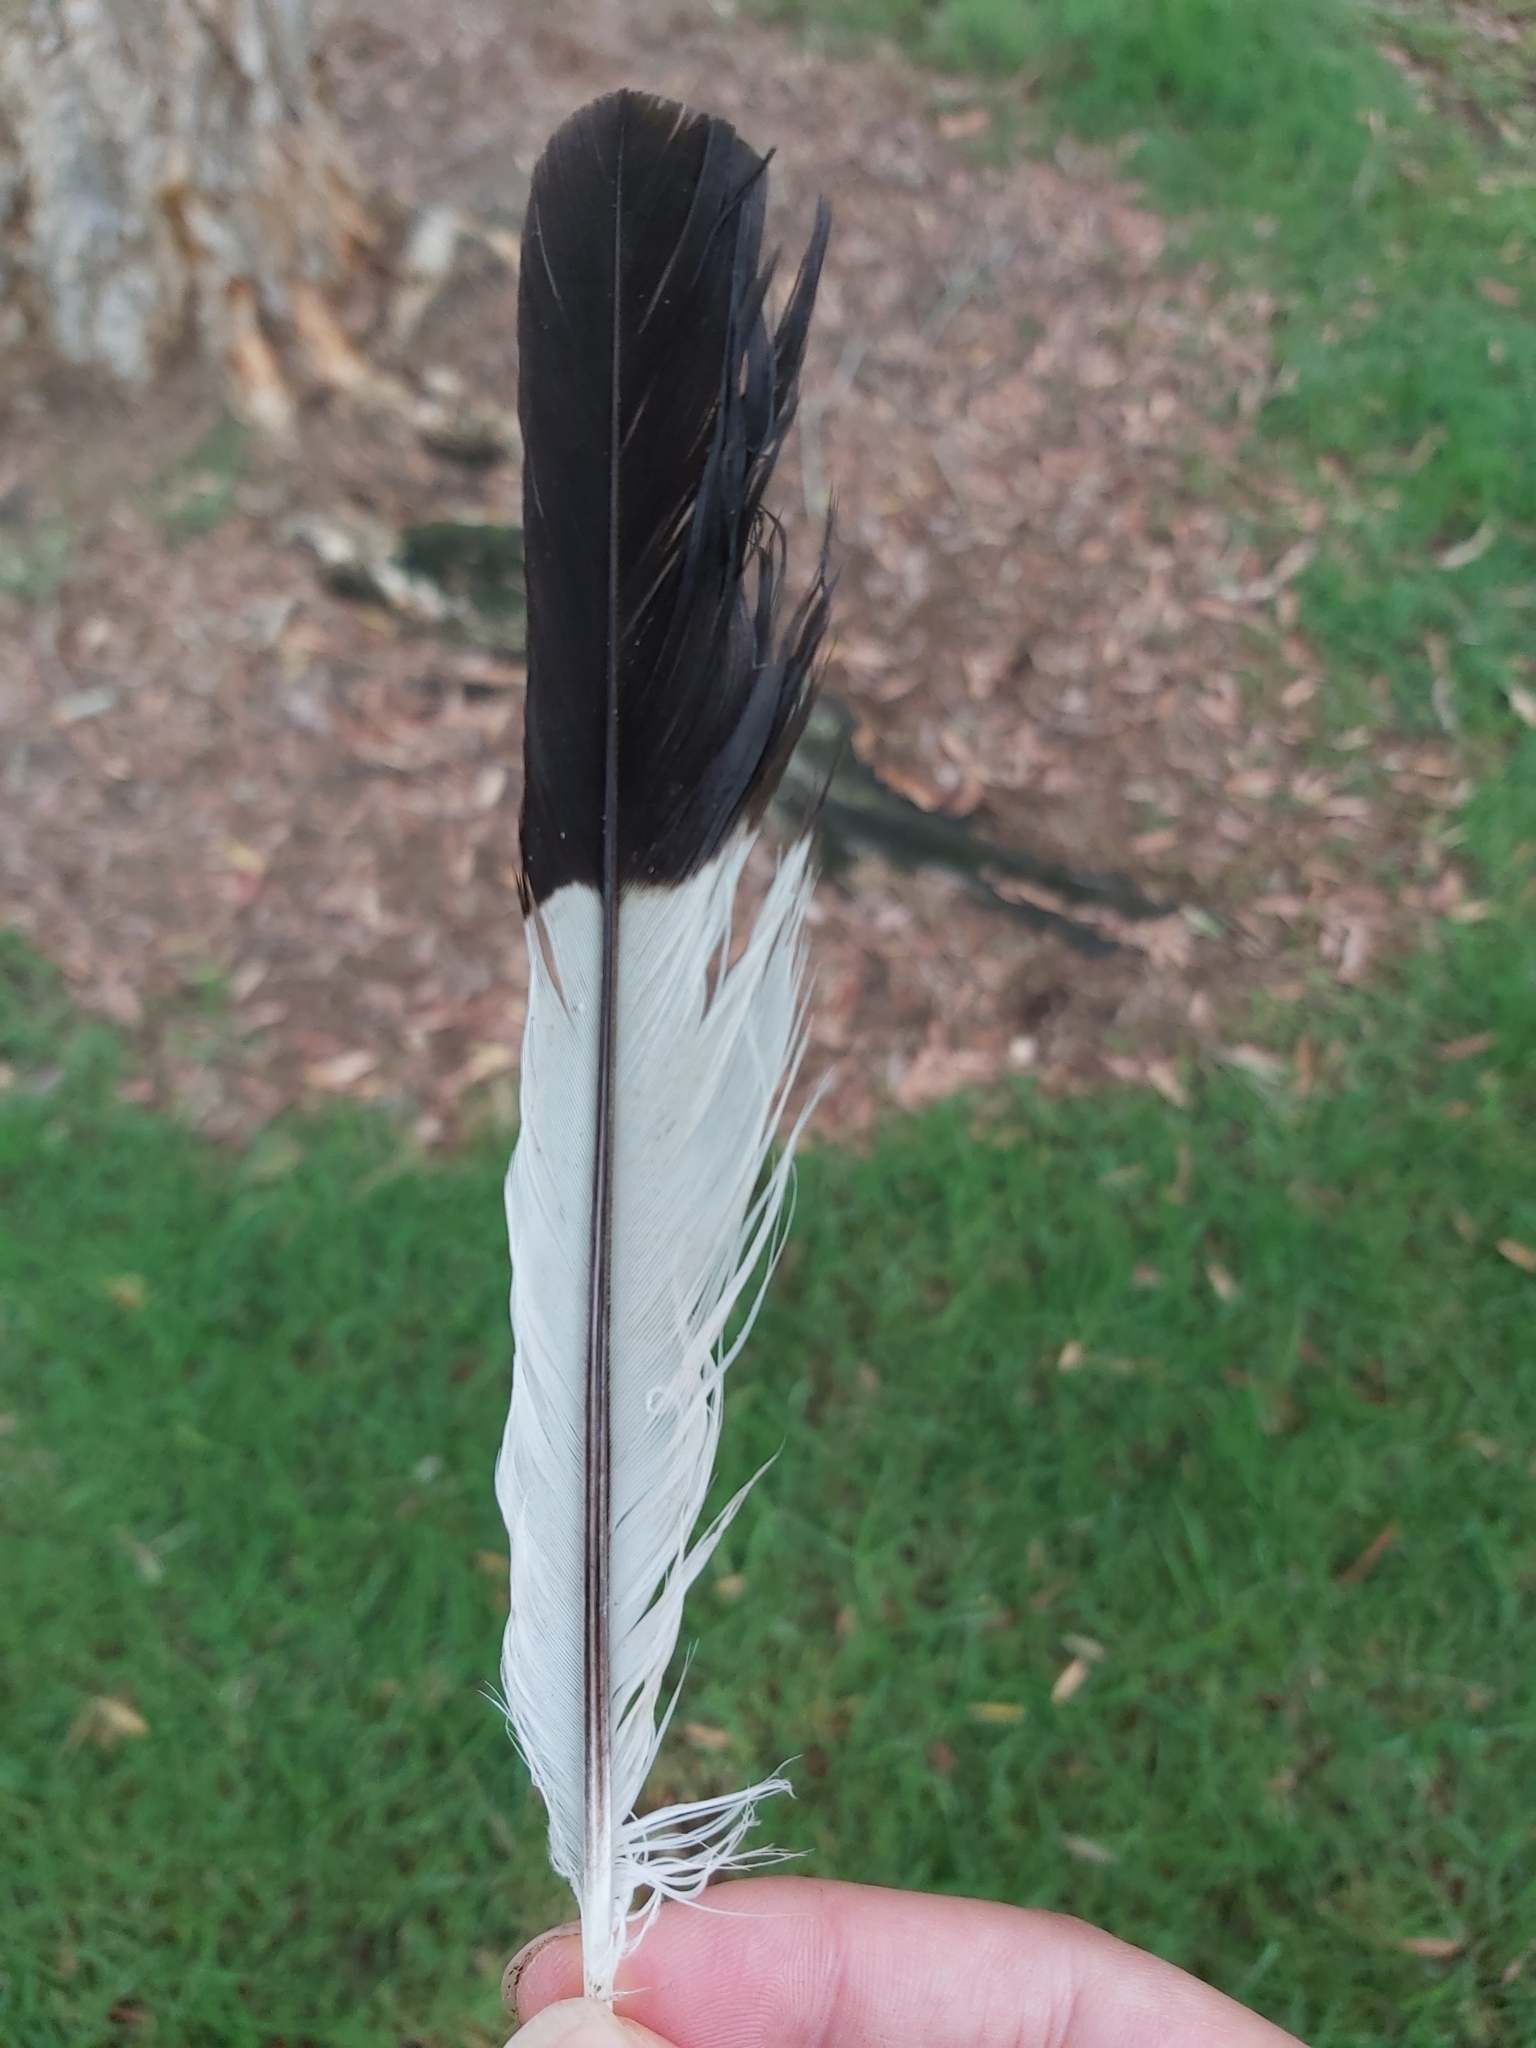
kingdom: Animalia
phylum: Chordata
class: Aves
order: Passeriformes
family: Cracticidae
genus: Gymnorhina
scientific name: Gymnorhina tibicen
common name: Australian magpie
